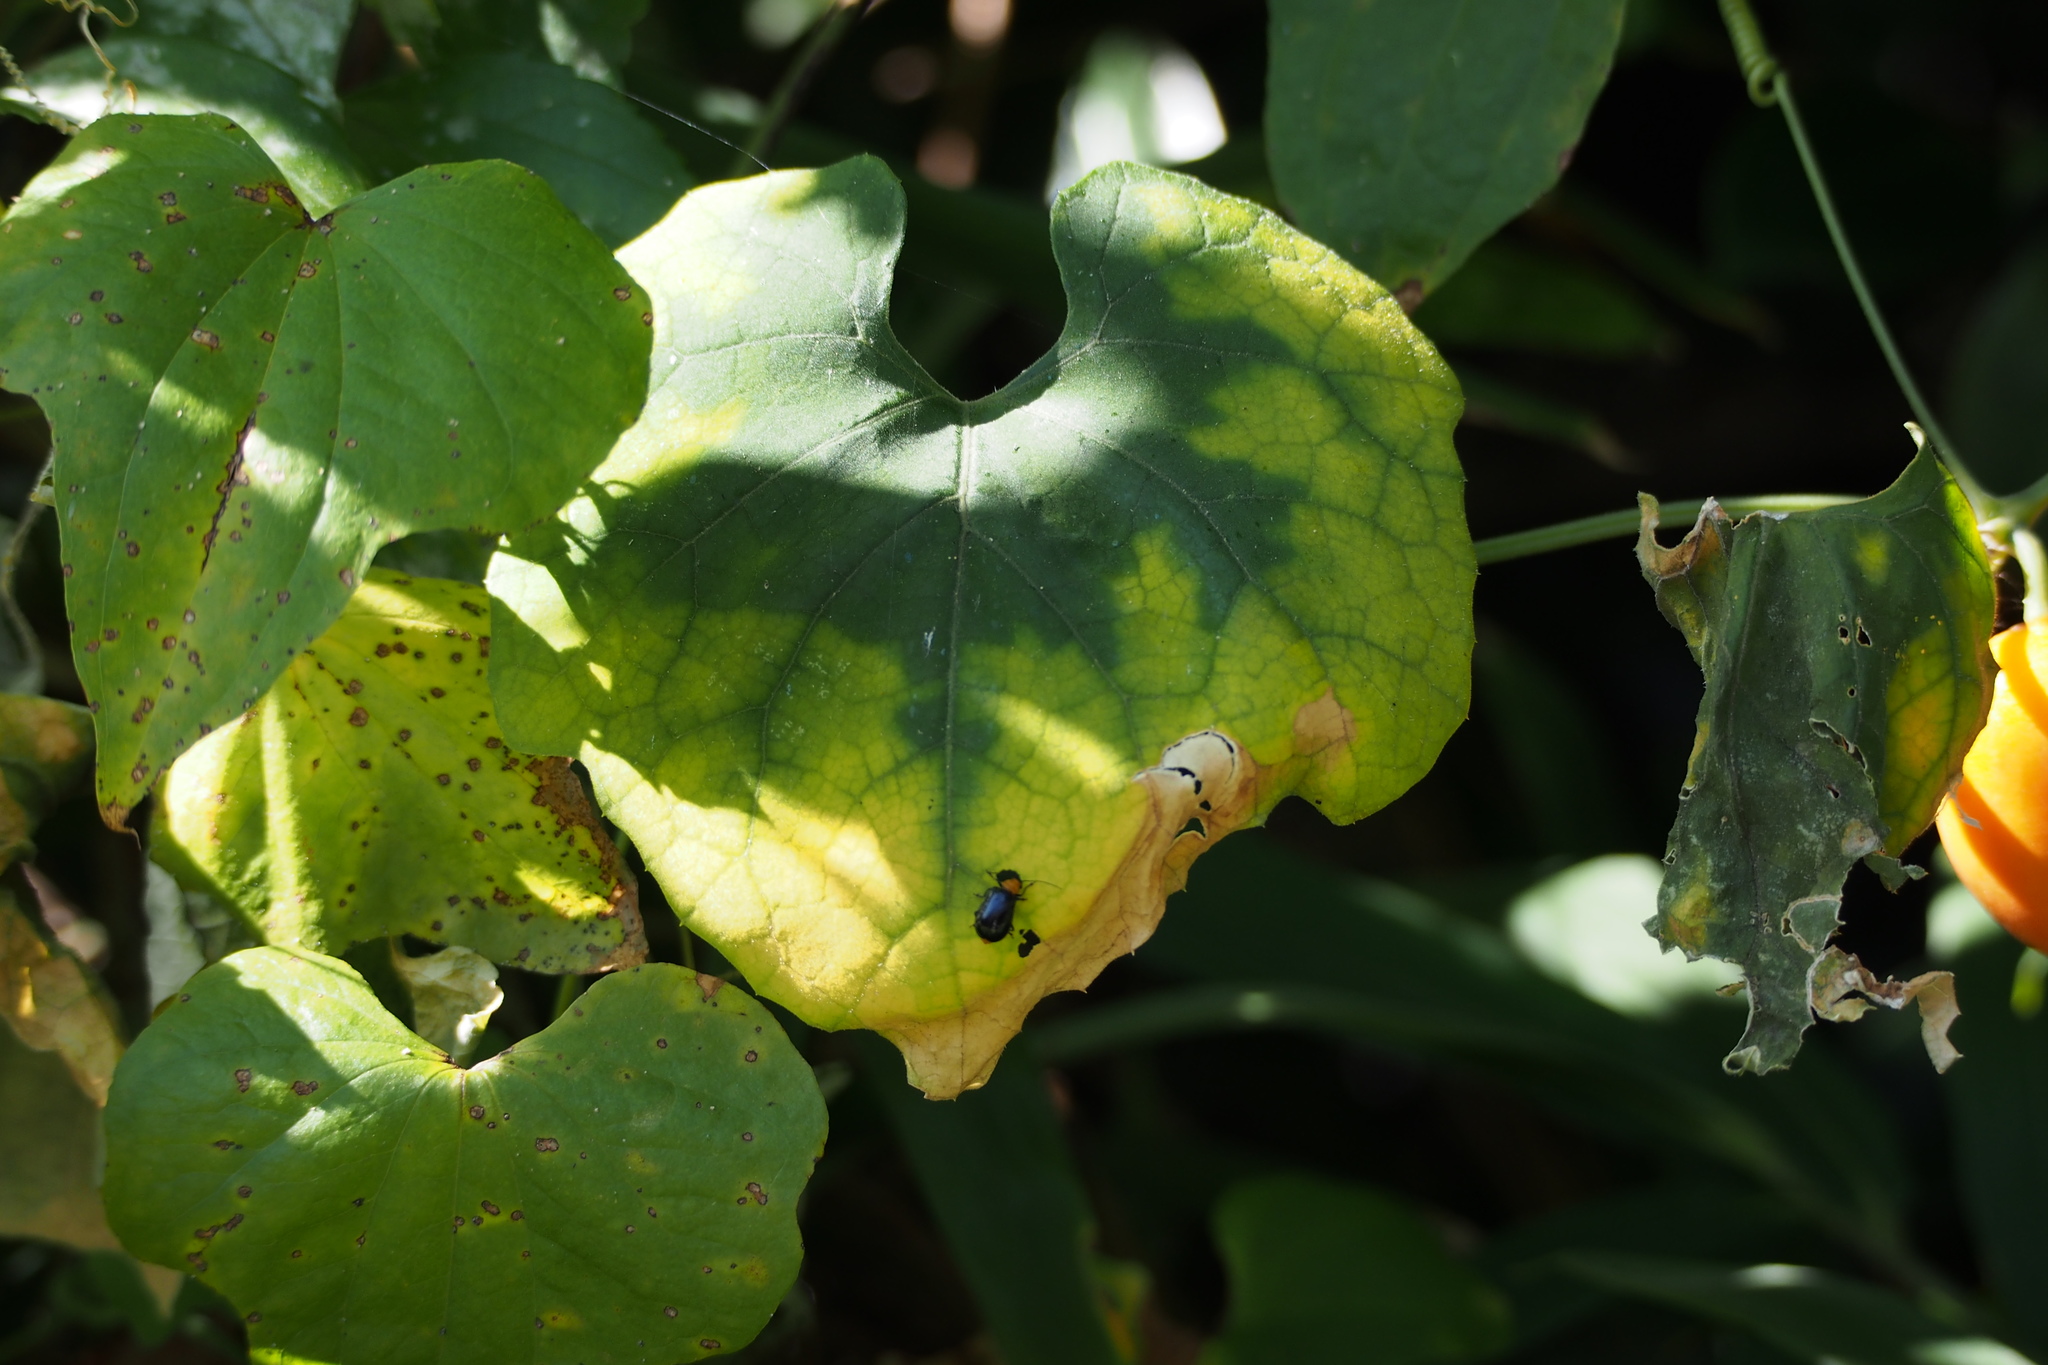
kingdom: Plantae
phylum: Tracheophyta
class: Magnoliopsida
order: Cucurbitales
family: Cucurbitaceae
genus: Trichosanthes
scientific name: Trichosanthes cucumeroides
